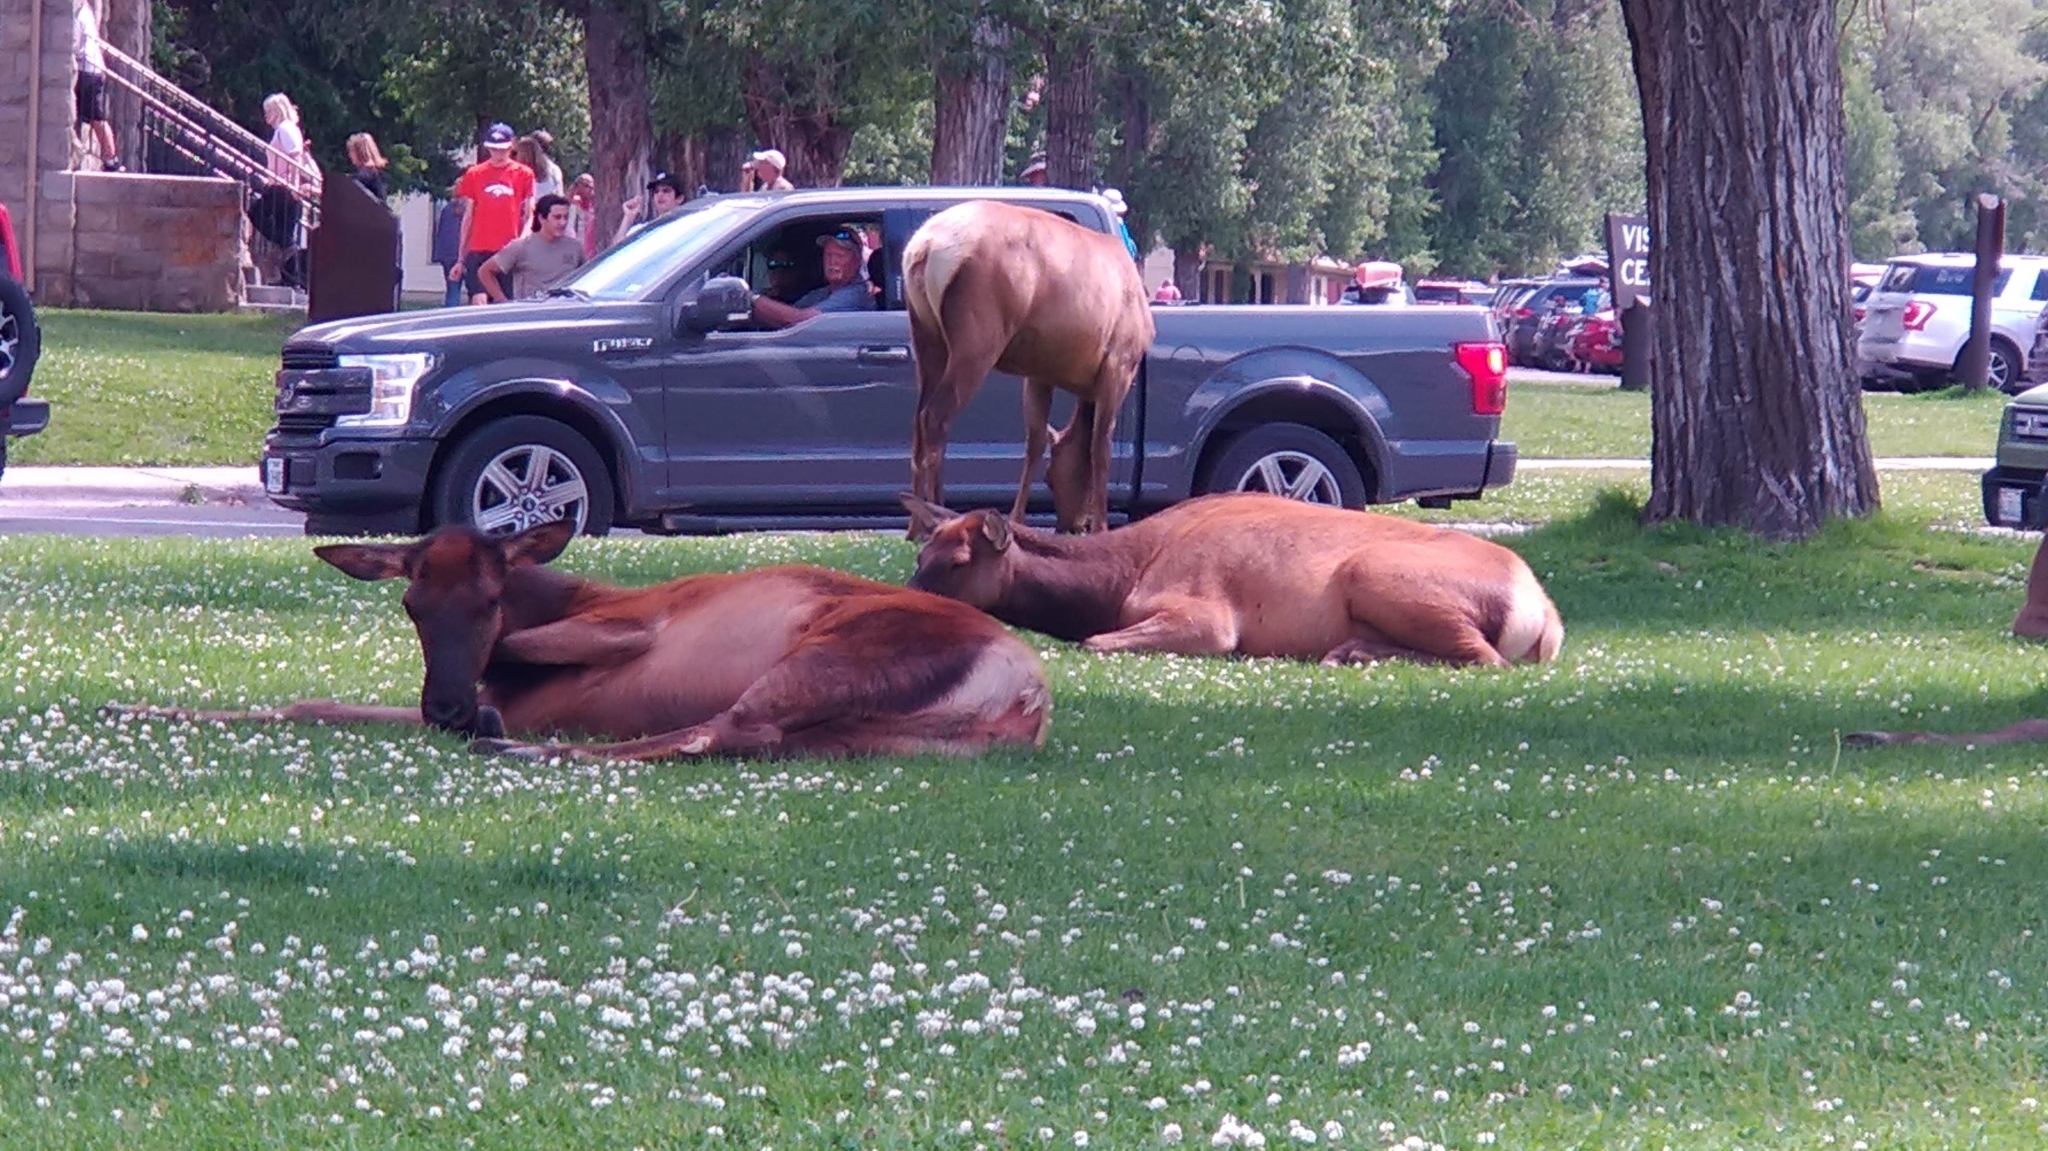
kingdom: Animalia
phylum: Chordata
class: Mammalia
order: Artiodactyla
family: Cervidae
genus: Cervus
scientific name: Cervus elaphus
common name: Red deer
